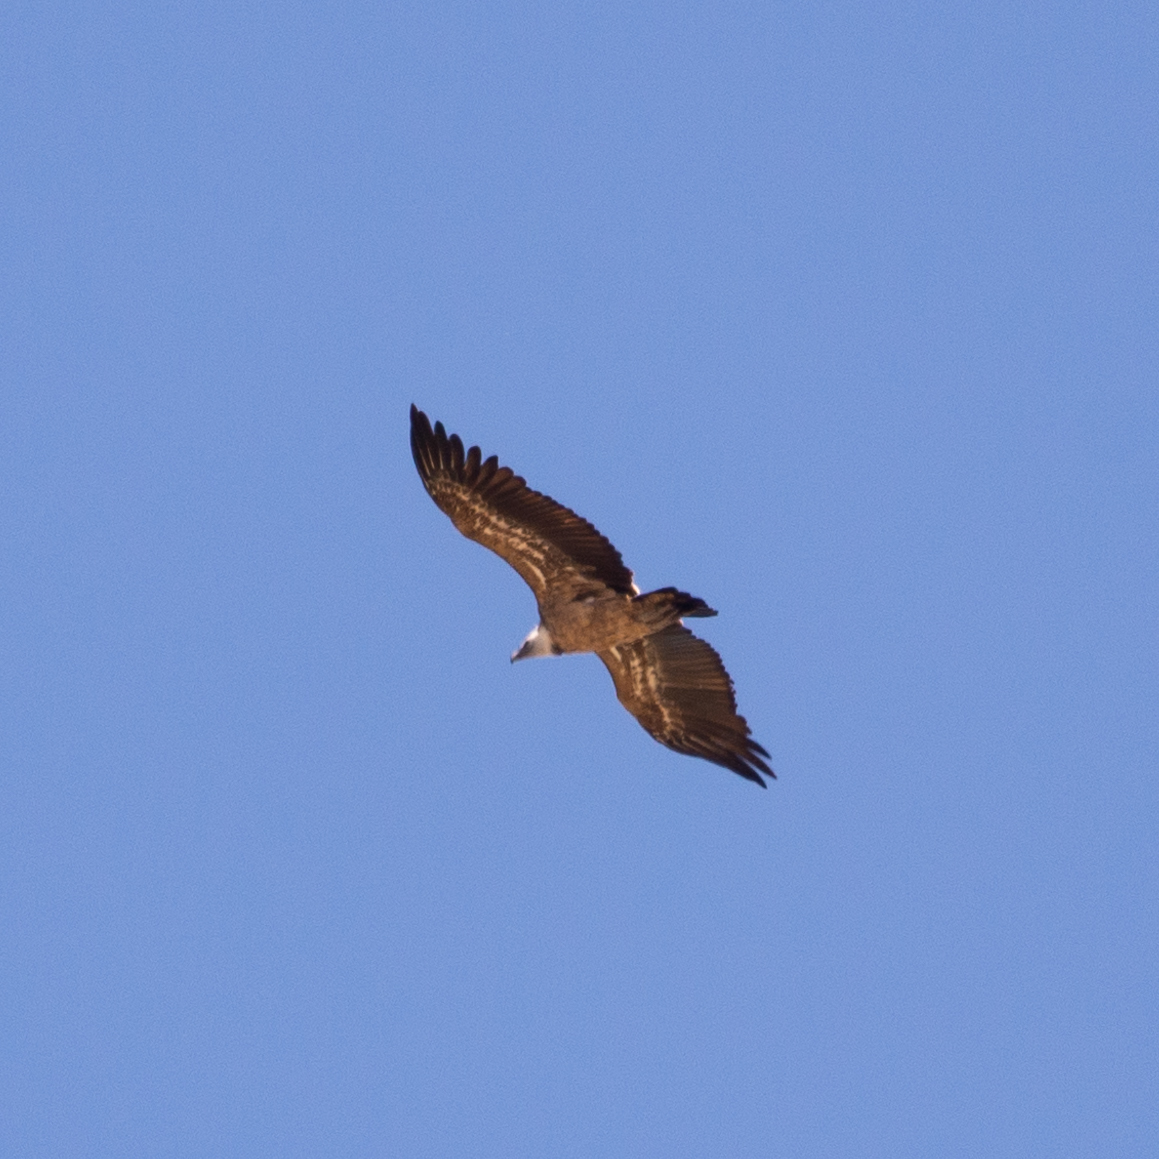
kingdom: Animalia
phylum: Chordata
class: Aves
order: Accipitriformes
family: Accipitridae
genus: Gyps
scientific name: Gyps fulvus
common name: Griffon vulture
